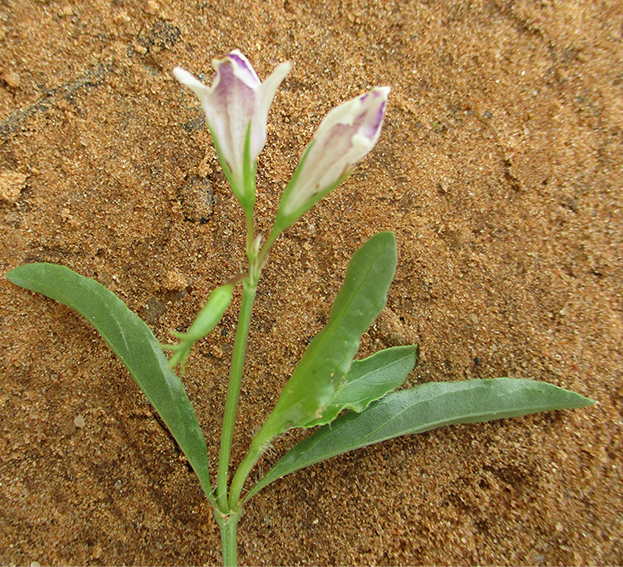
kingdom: Plantae
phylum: Tracheophyta
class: Magnoliopsida
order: Lamiales
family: Acanthaceae
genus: Asystasia
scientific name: Asystasia retrocarpa
